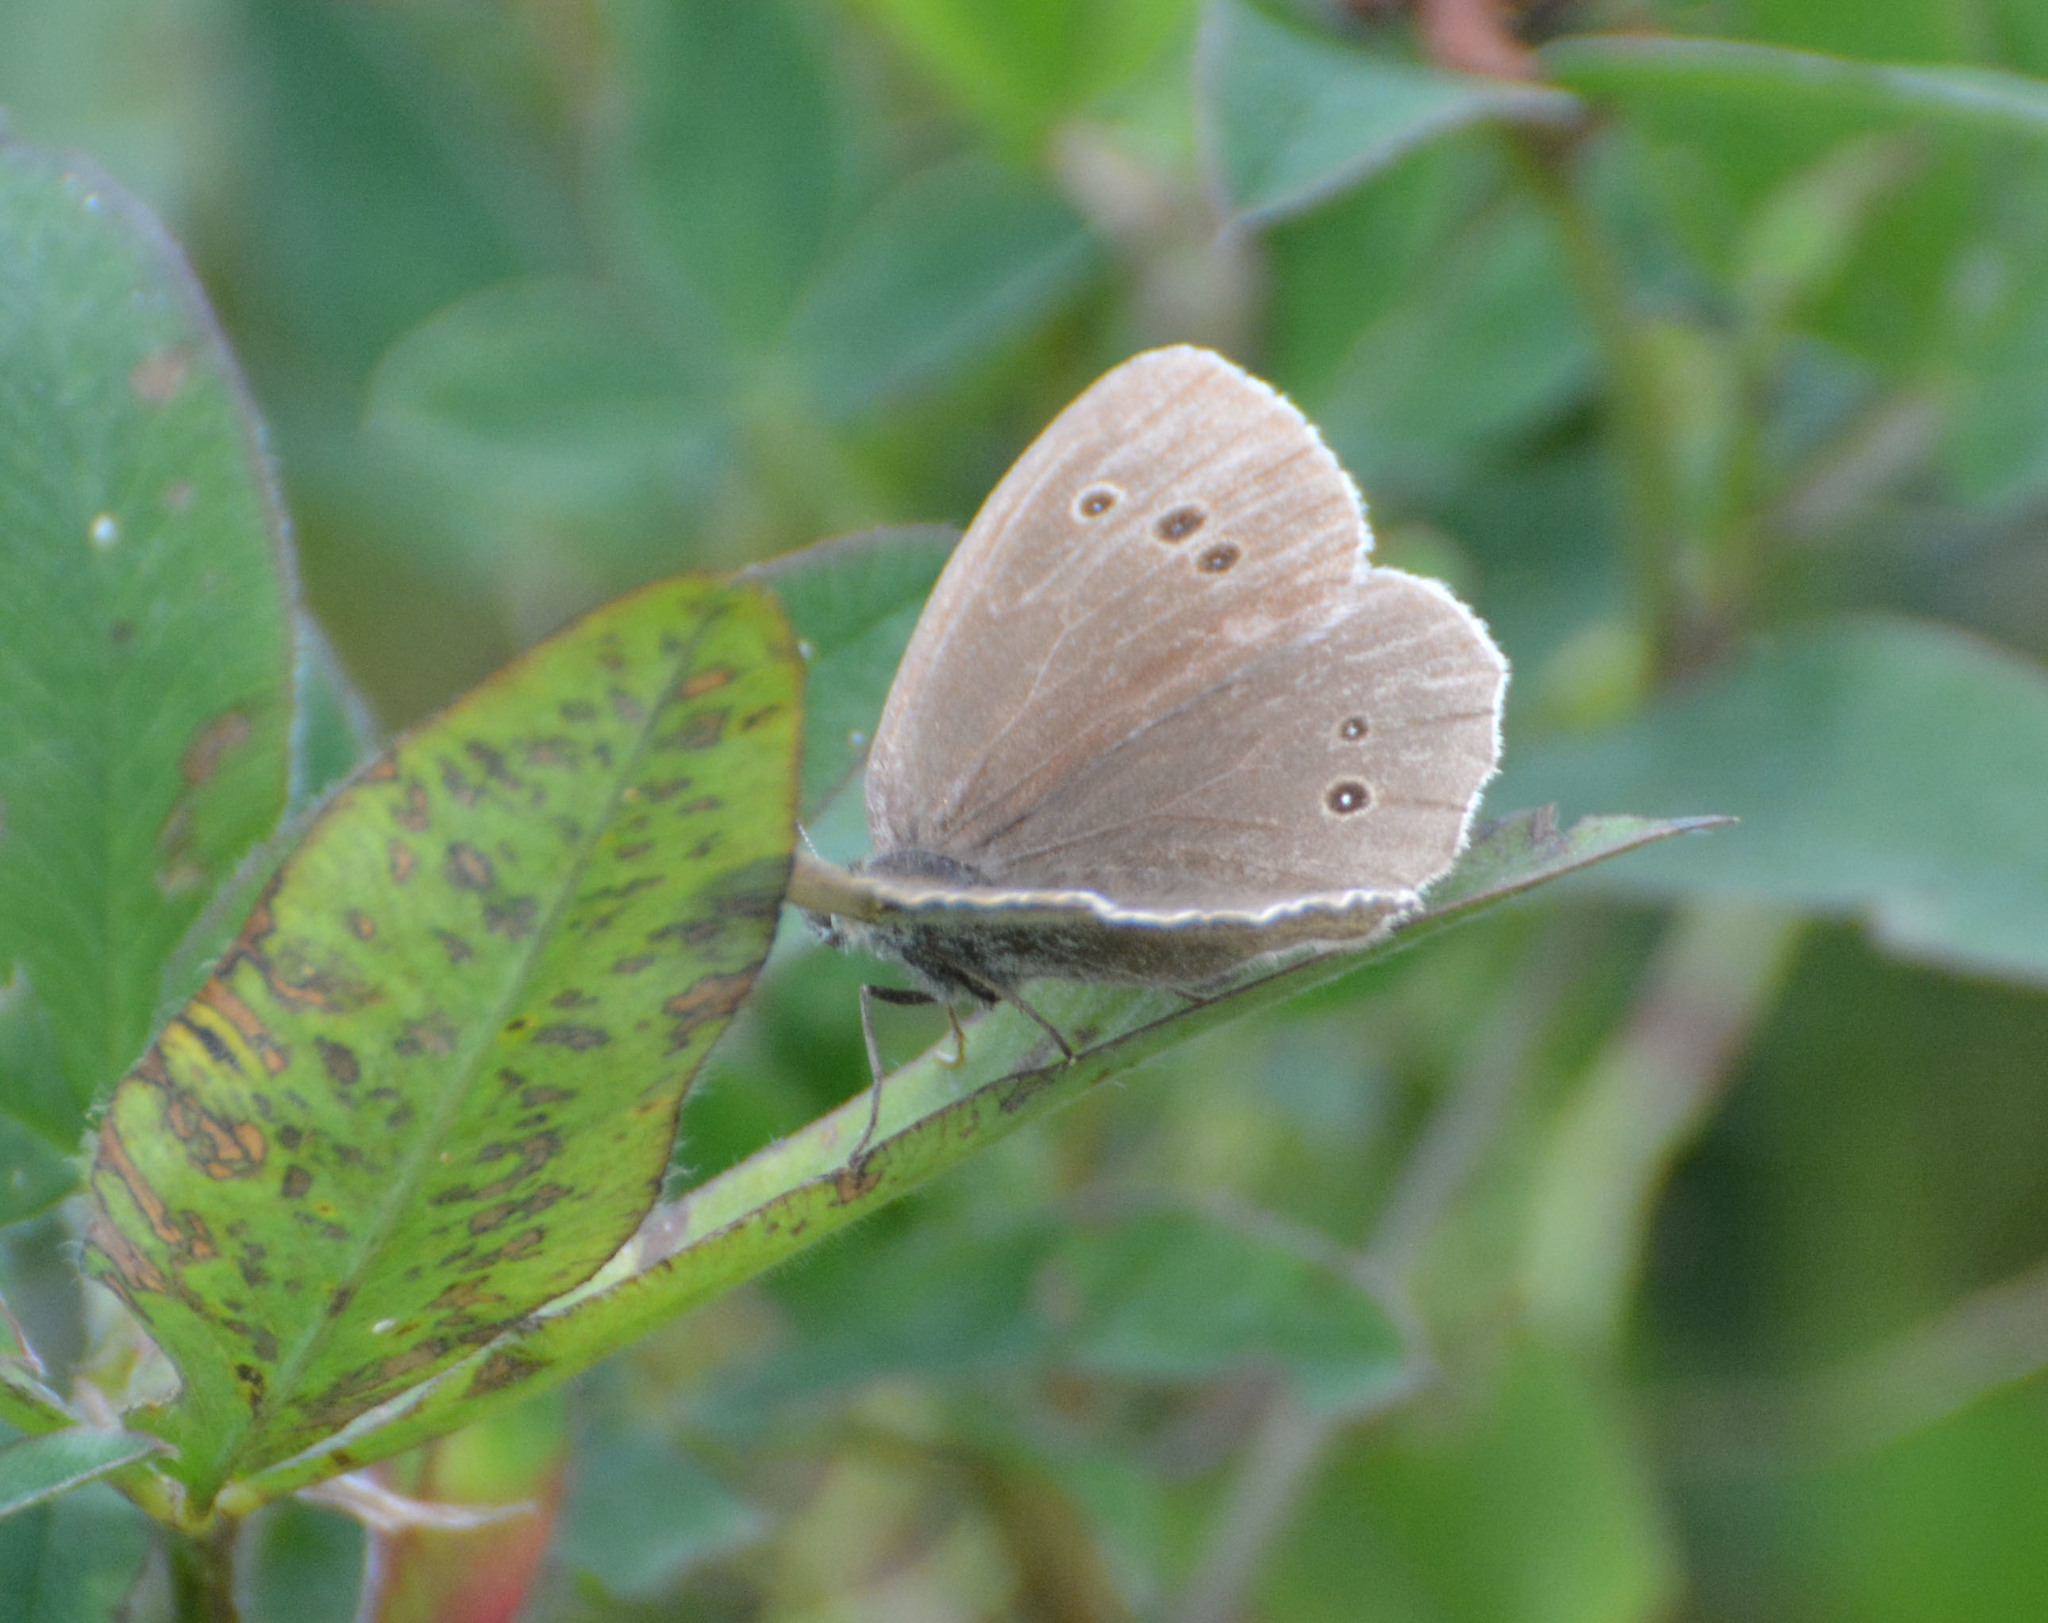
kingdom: Animalia
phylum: Arthropoda
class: Insecta
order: Lepidoptera
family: Nymphalidae
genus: Aphantopus
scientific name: Aphantopus hyperantus
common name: Ringlet
